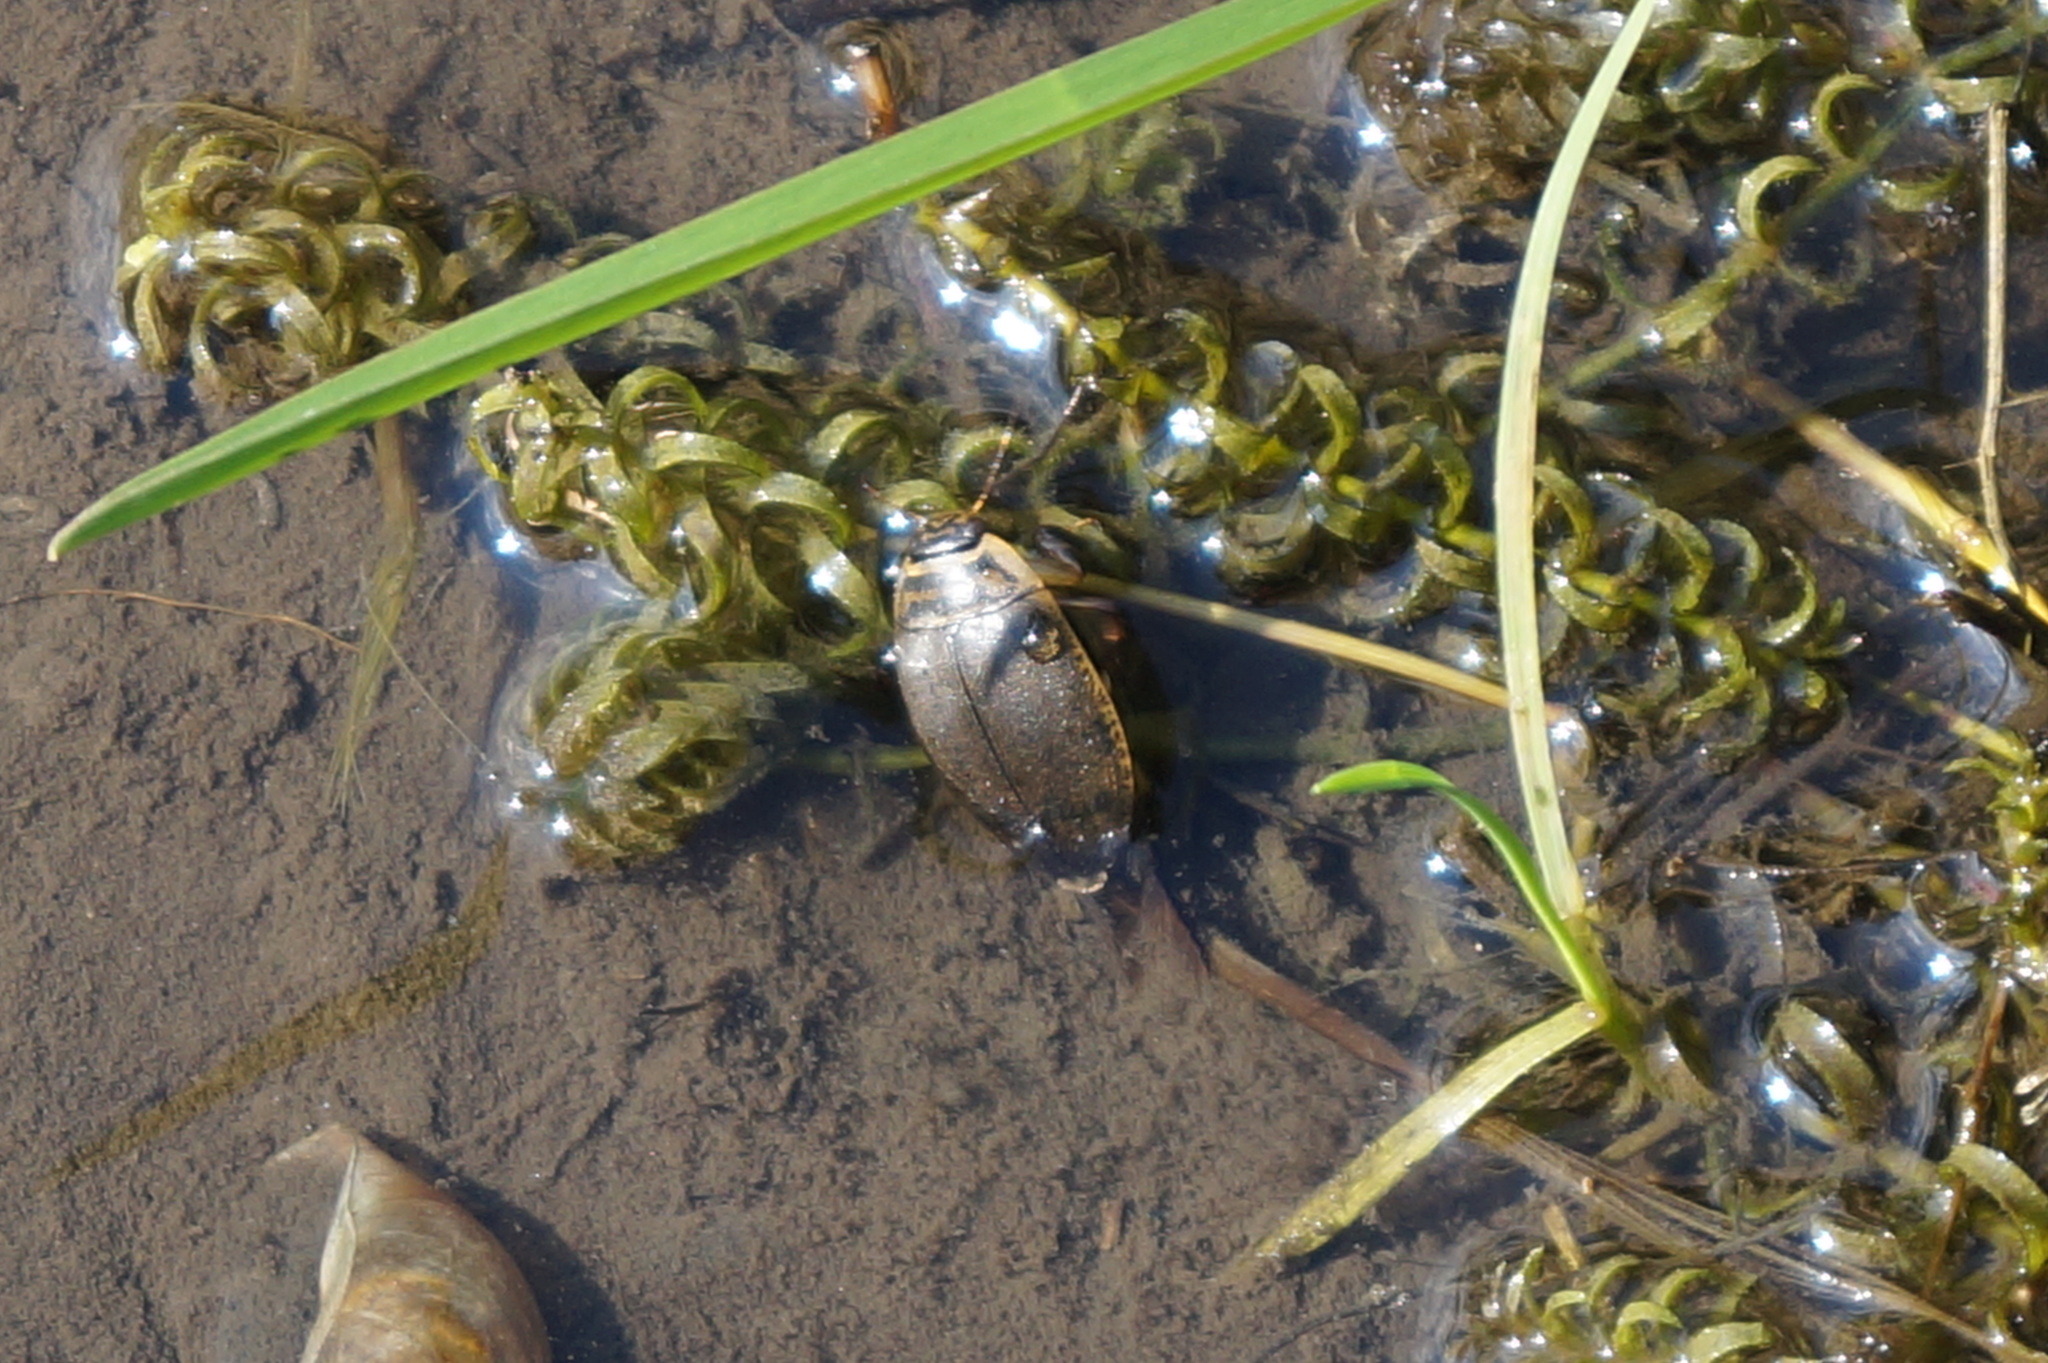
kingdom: Animalia
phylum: Arthropoda
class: Insecta
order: Coleoptera
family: Dytiscidae
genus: Acilius
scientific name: Acilius sulcatus
